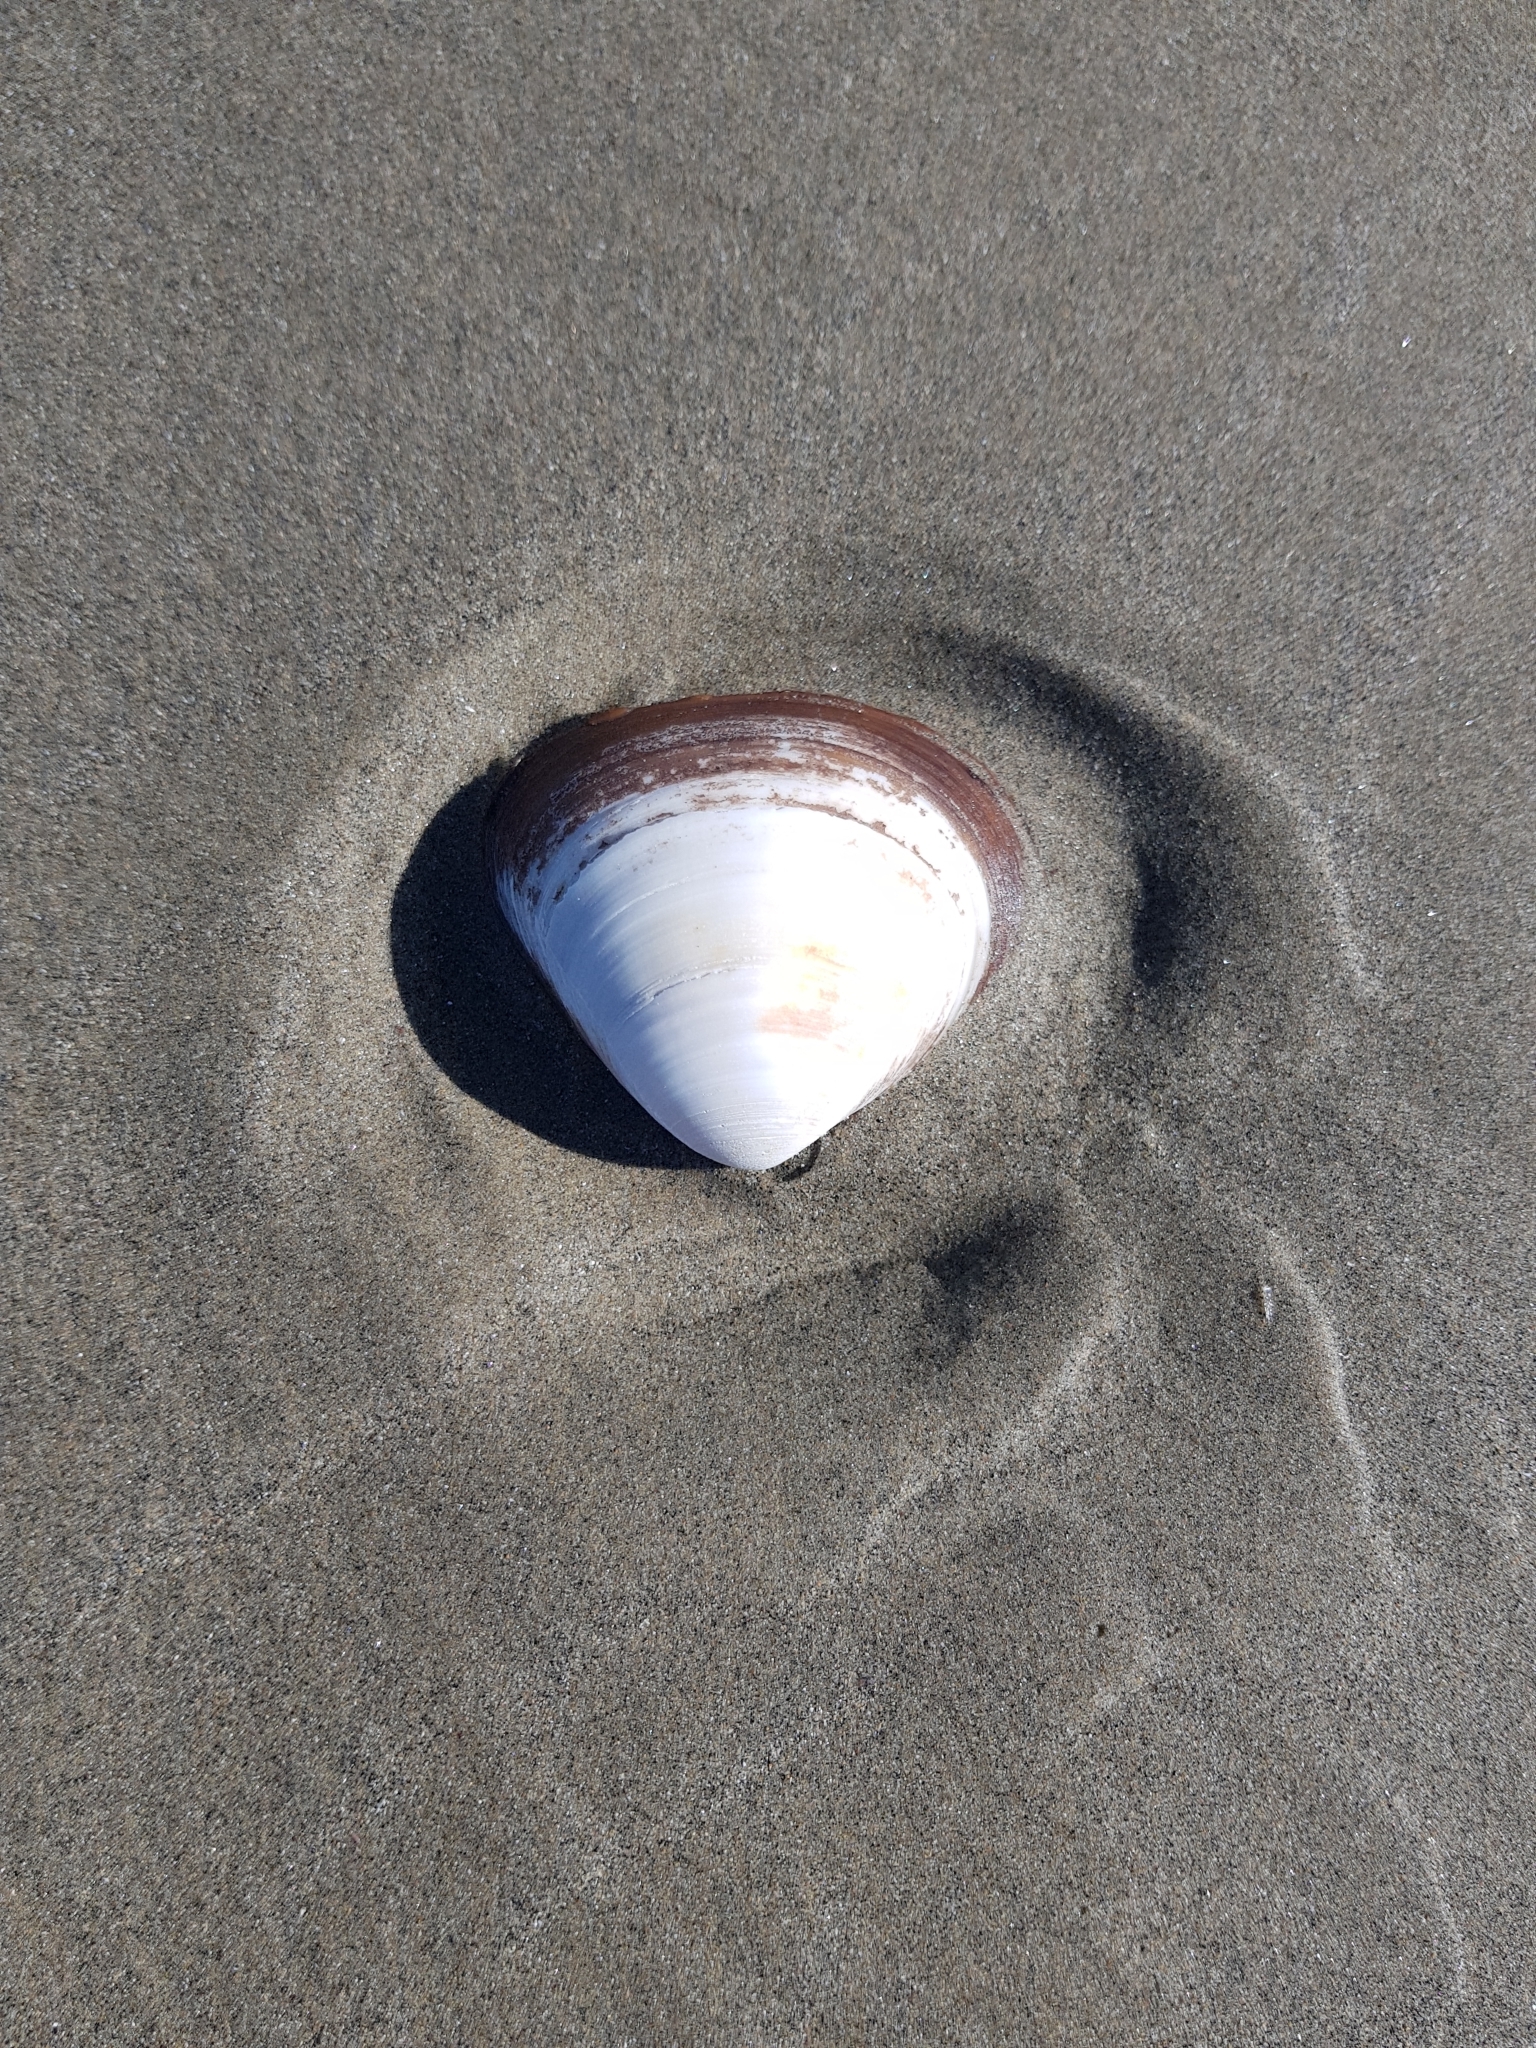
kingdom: Animalia
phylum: Mollusca
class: Bivalvia
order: Venerida
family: Mactridae
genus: Spisula
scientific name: Spisula discors
